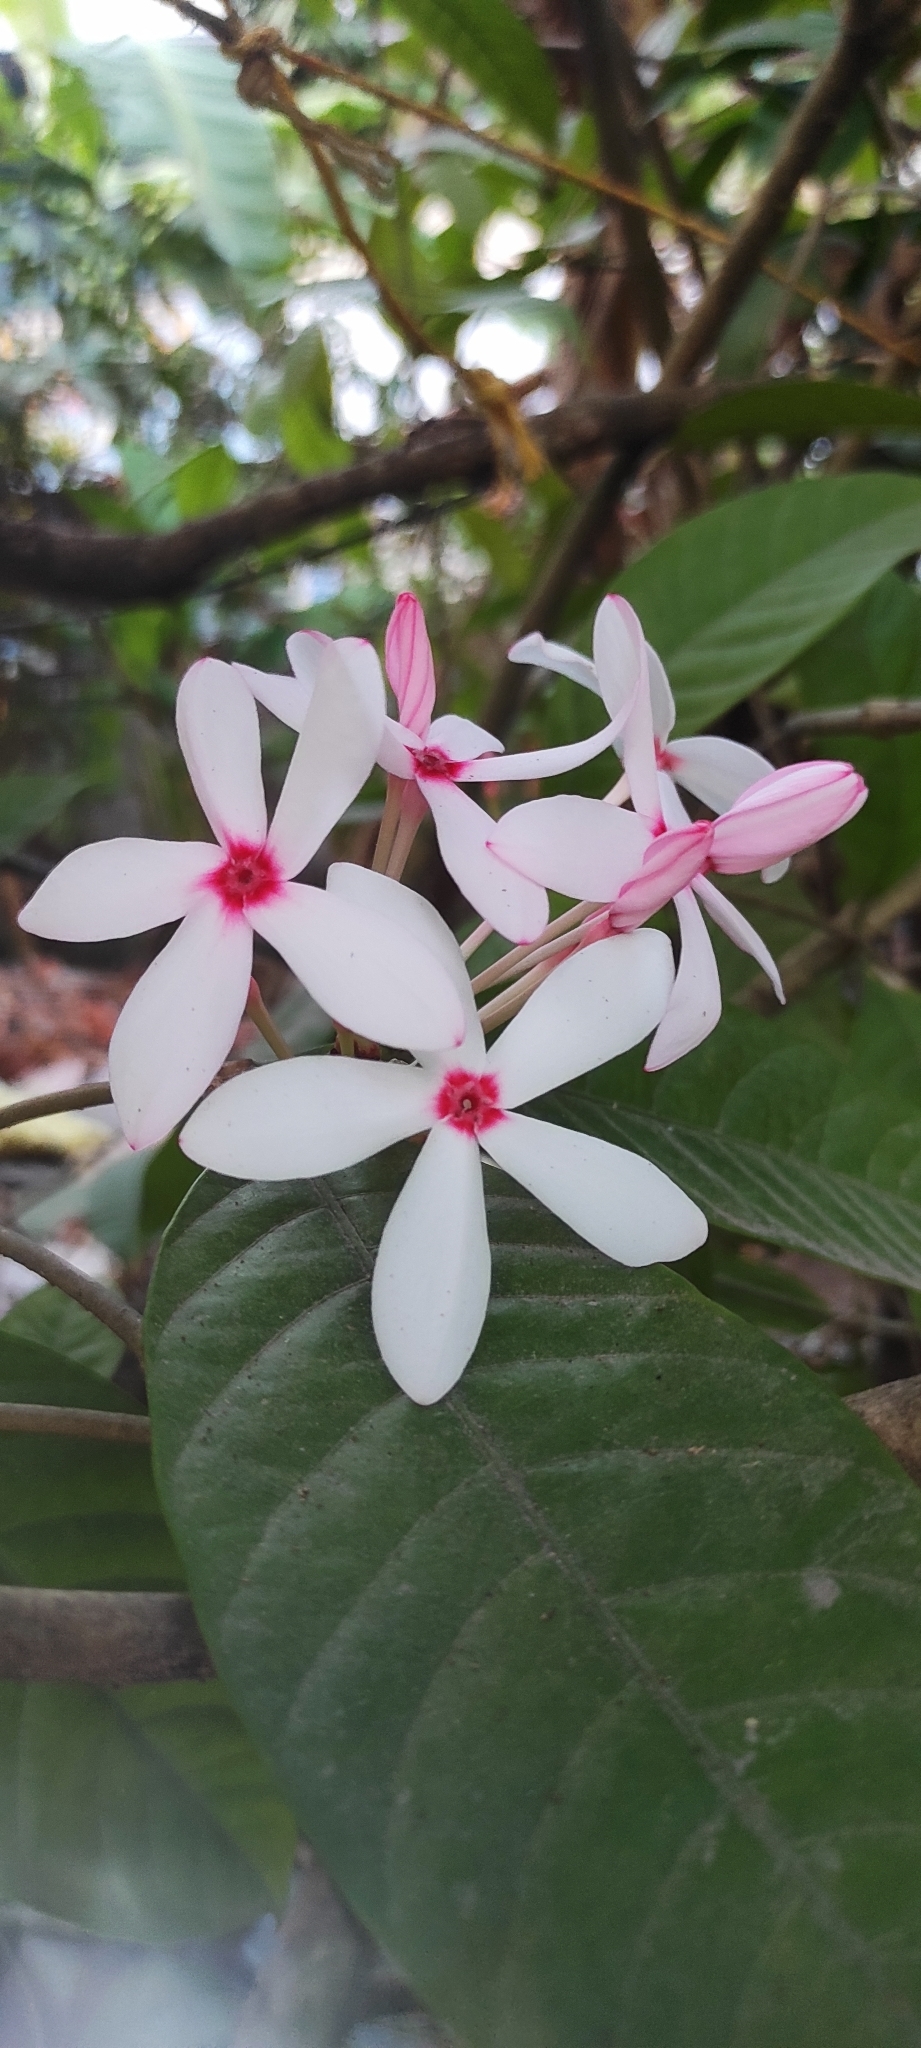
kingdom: Plantae
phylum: Tracheophyta
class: Magnoliopsida
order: Gentianales
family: Apocynaceae
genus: Kopsia
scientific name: Kopsia fruticosa
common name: Shrub-vinca
